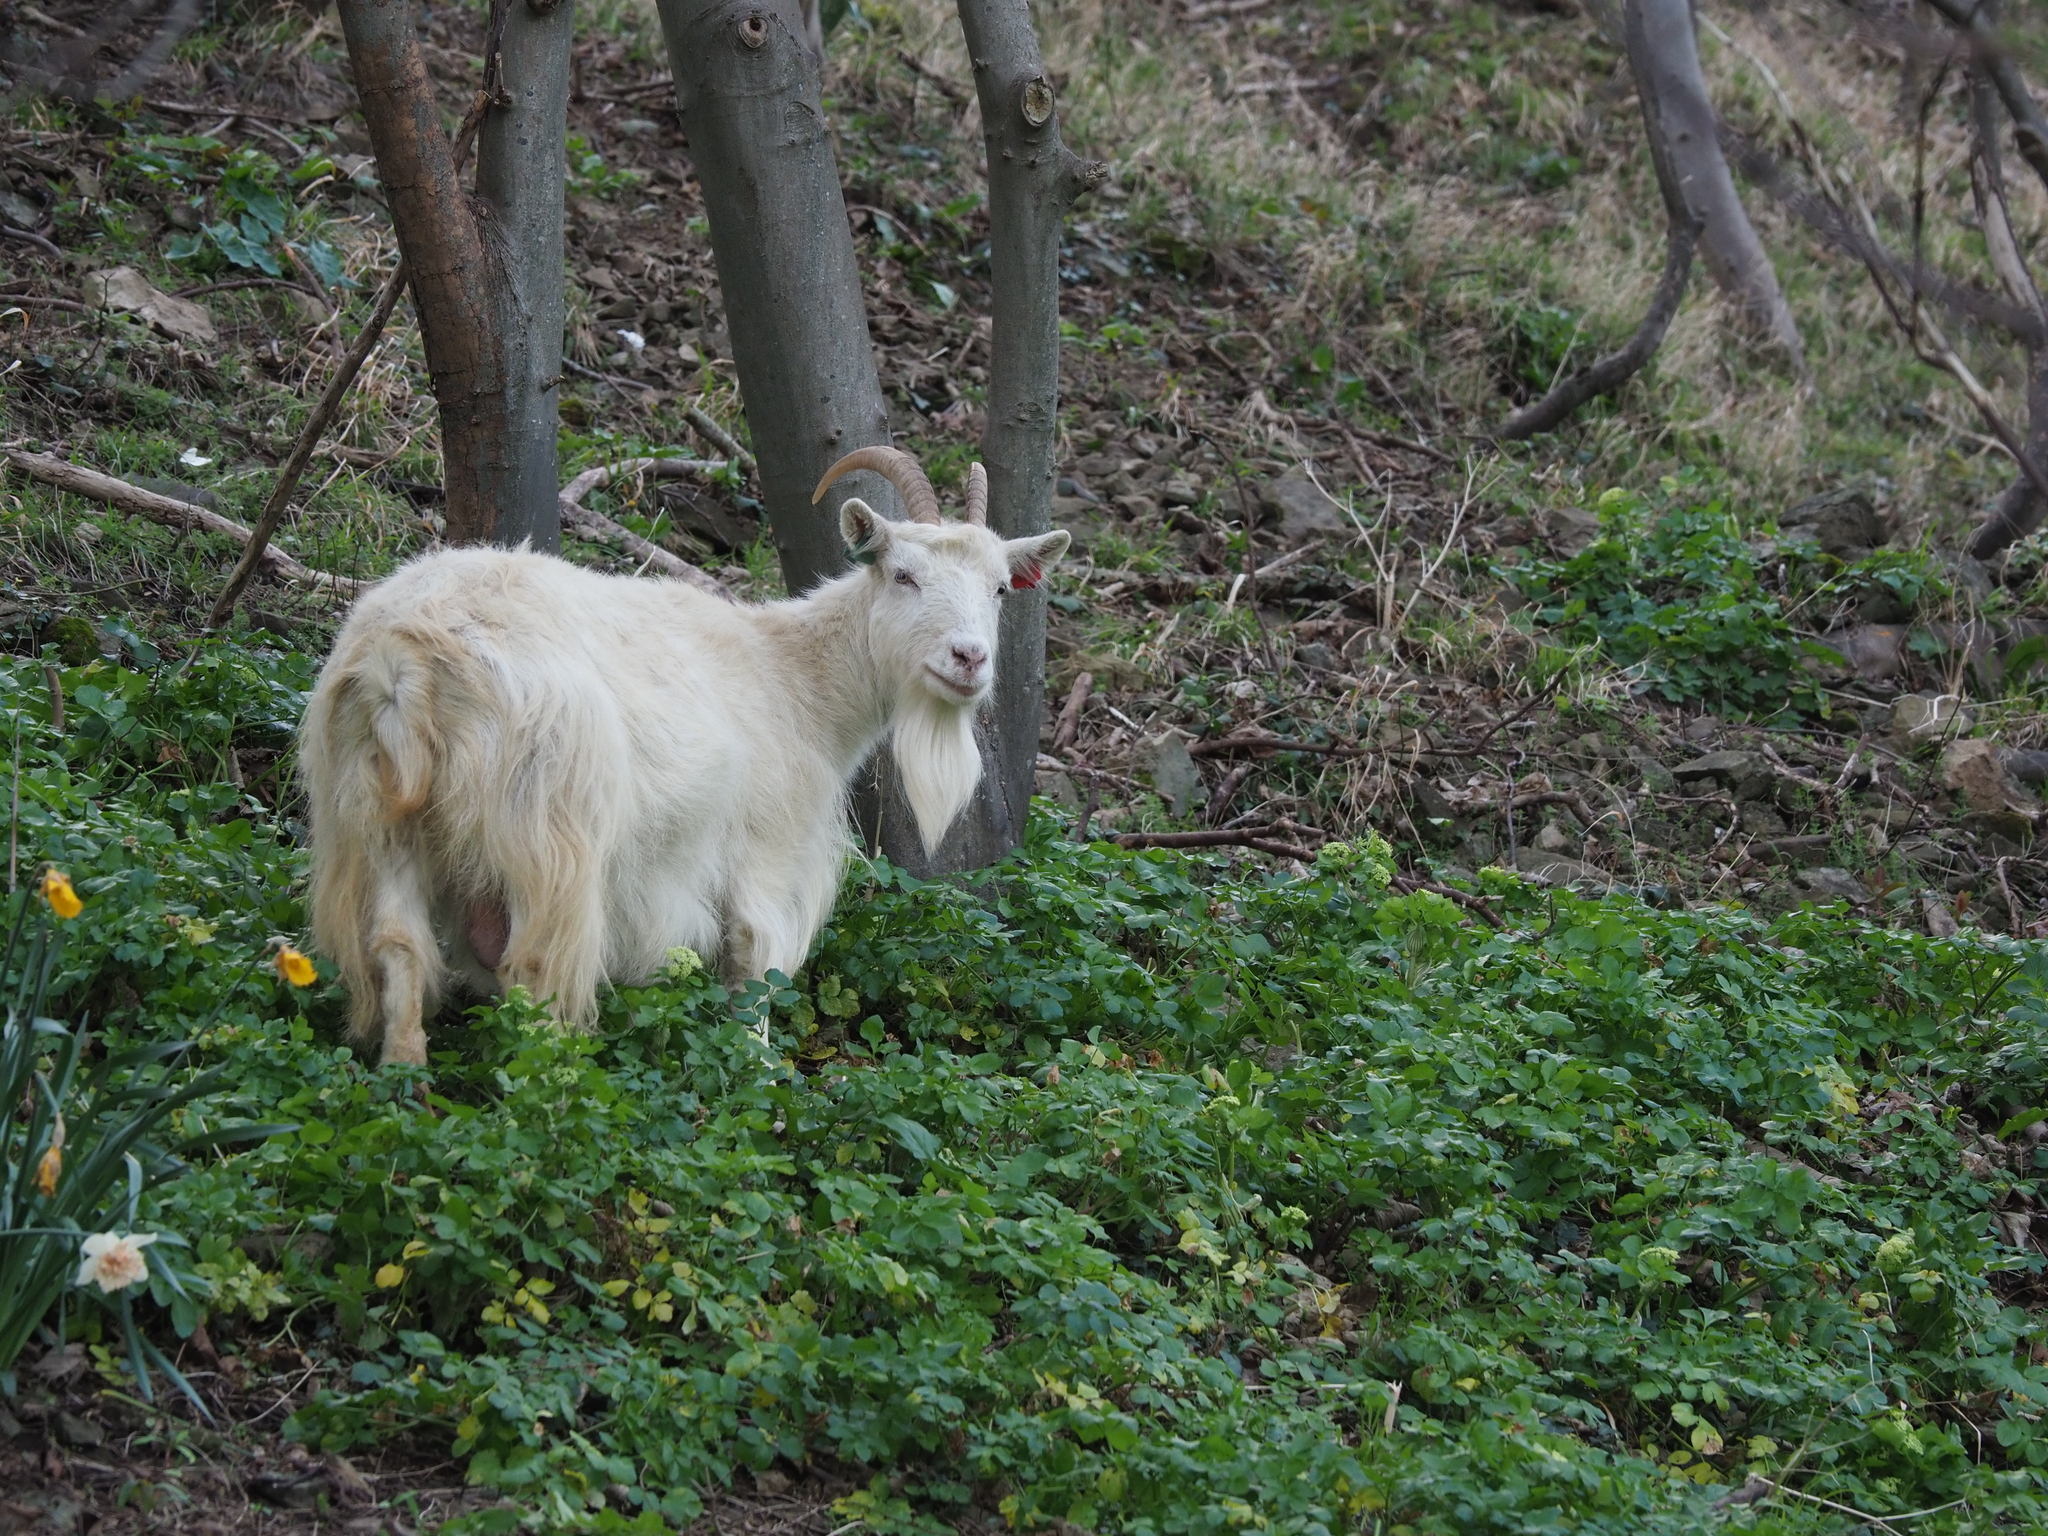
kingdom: Animalia
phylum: Chordata
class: Mammalia
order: Artiodactyla
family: Bovidae
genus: Capra
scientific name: Capra hircus
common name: Domestic goat
